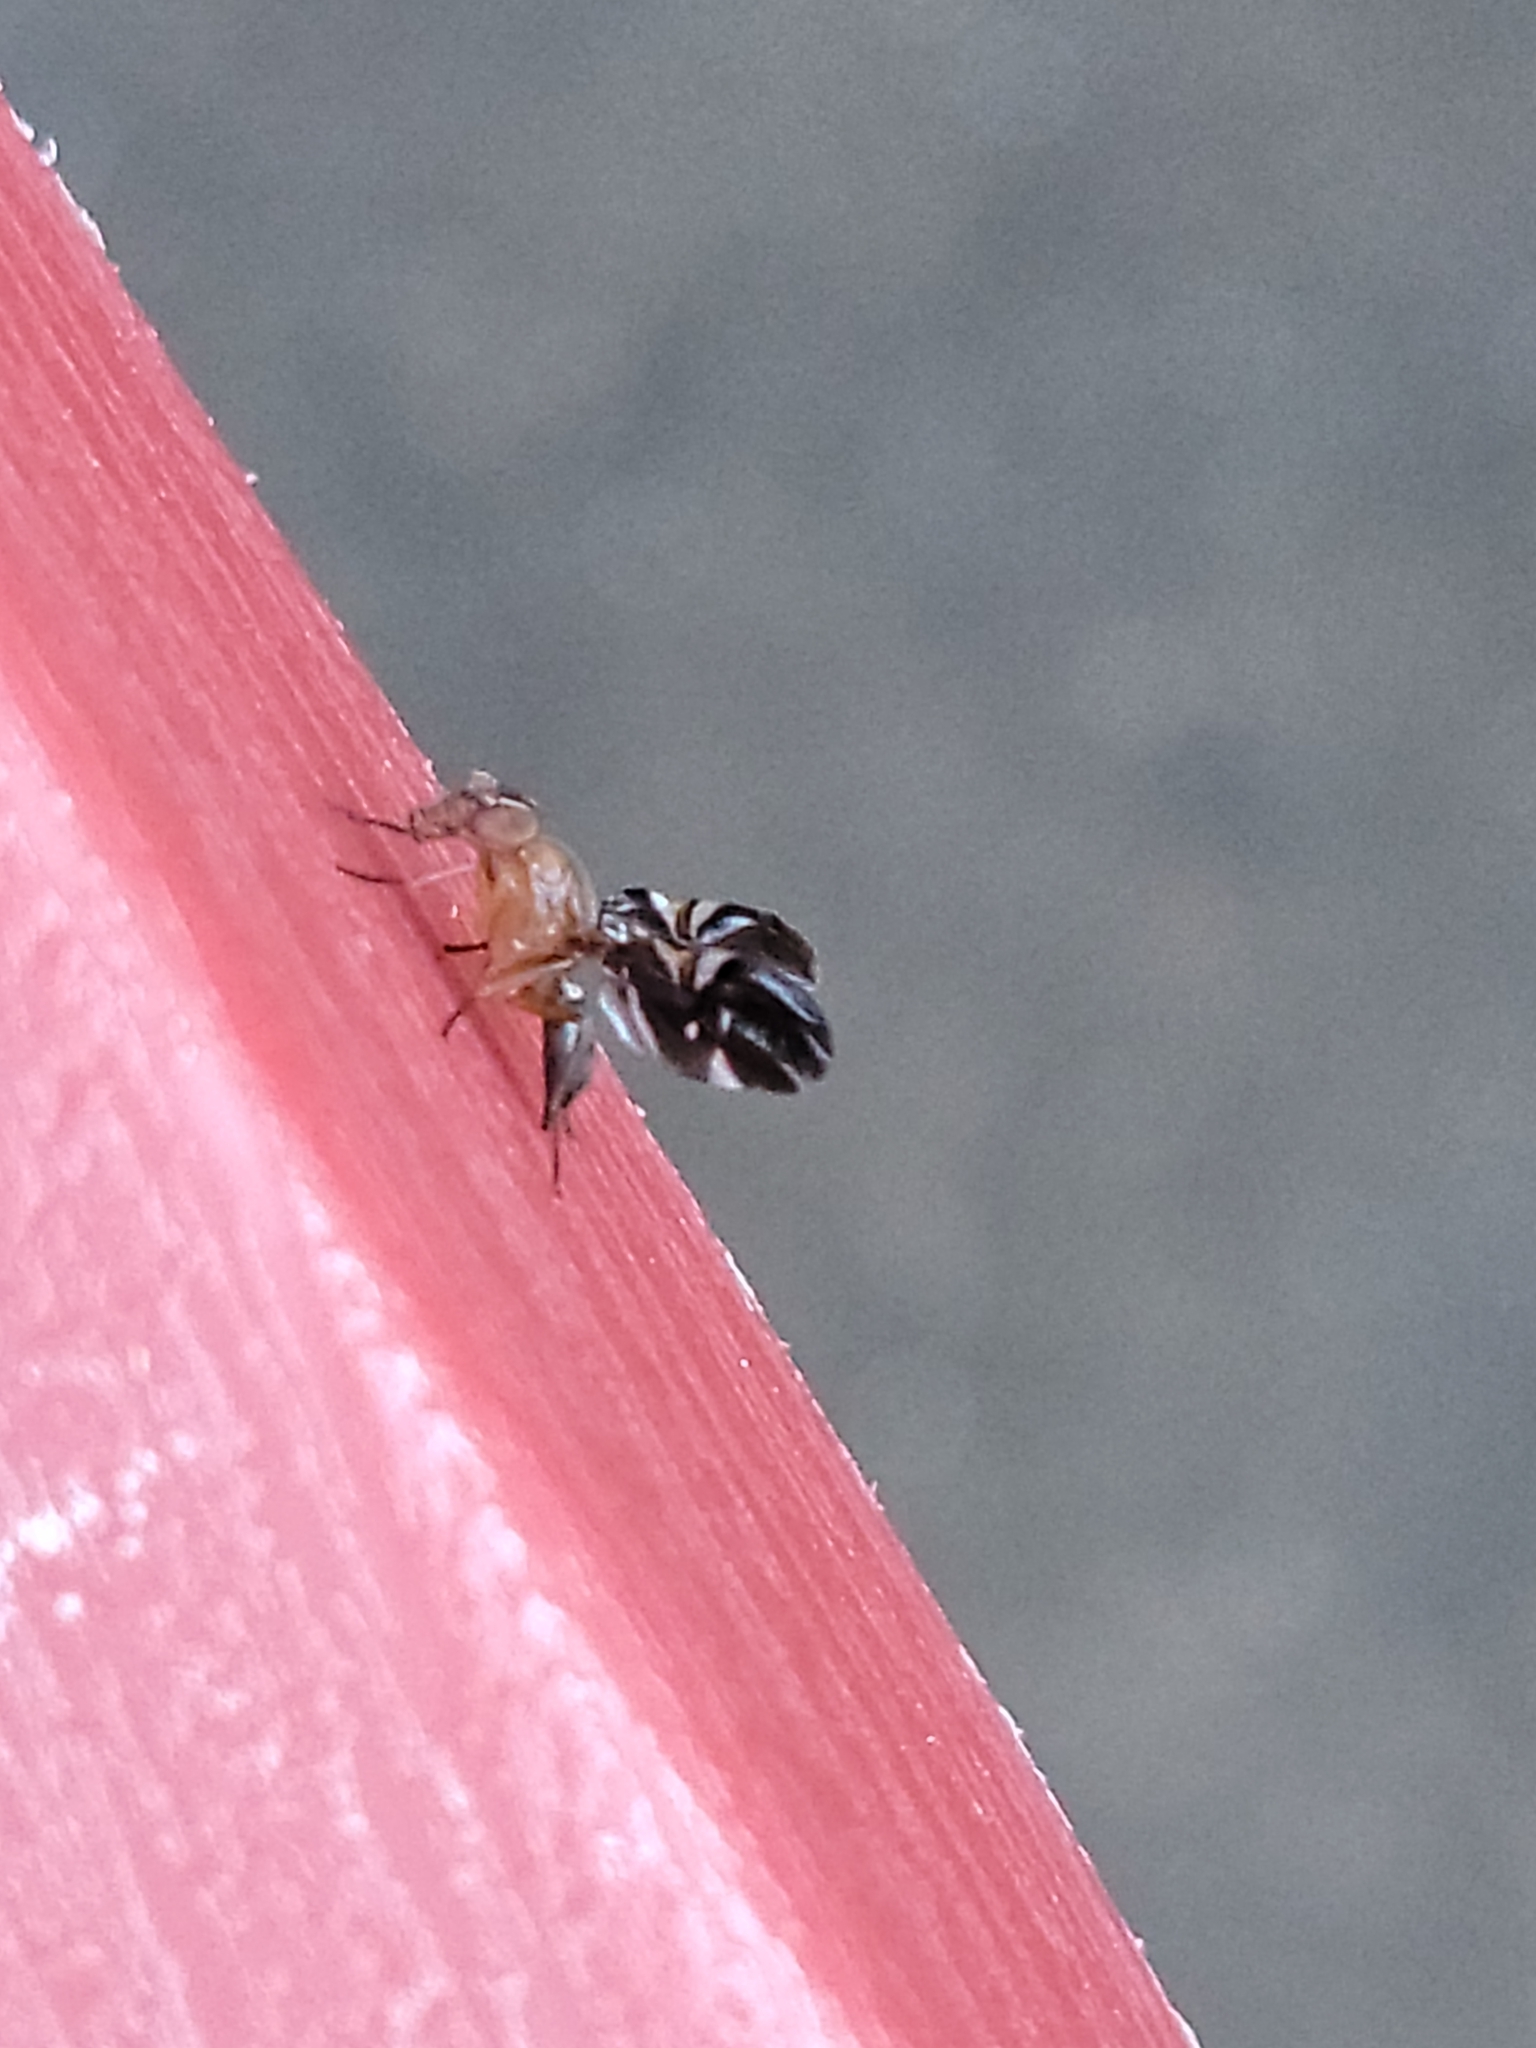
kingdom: Animalia
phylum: Arthropoda
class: Insecta
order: Diptera
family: Ulidiidae
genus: Delphinia
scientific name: Delphinia picta
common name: Common picture-winged fly
